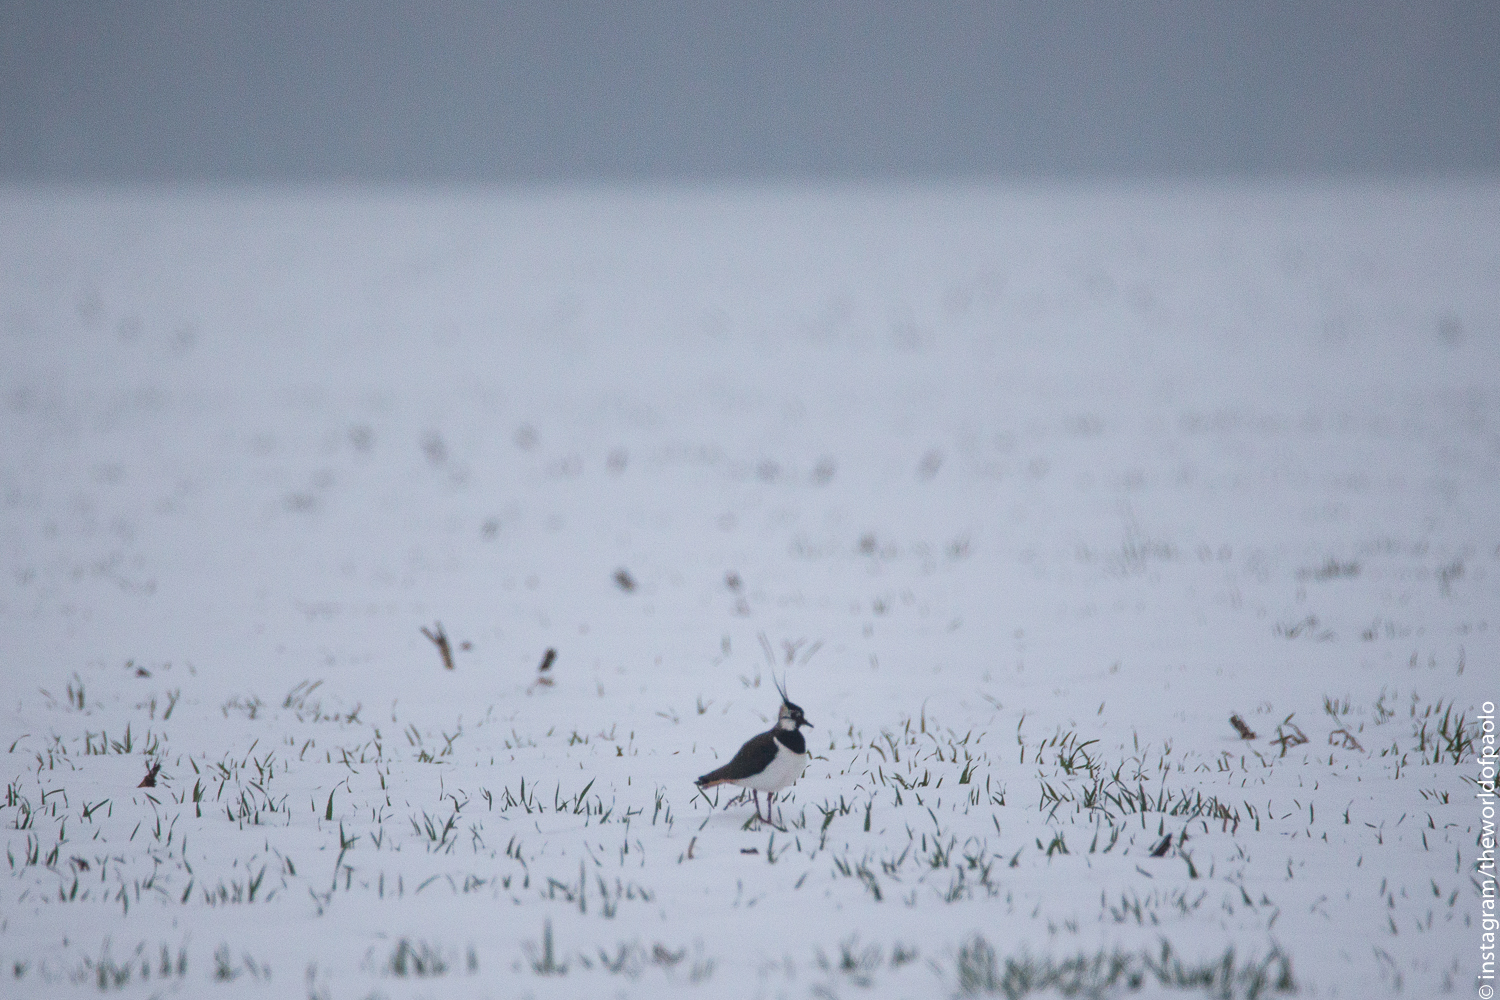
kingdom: Animalia
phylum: Chordata
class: Aves
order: Charadriiformes
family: Charadriidae
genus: Vanellus
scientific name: Vanellus vanellus
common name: Northern lapwing
